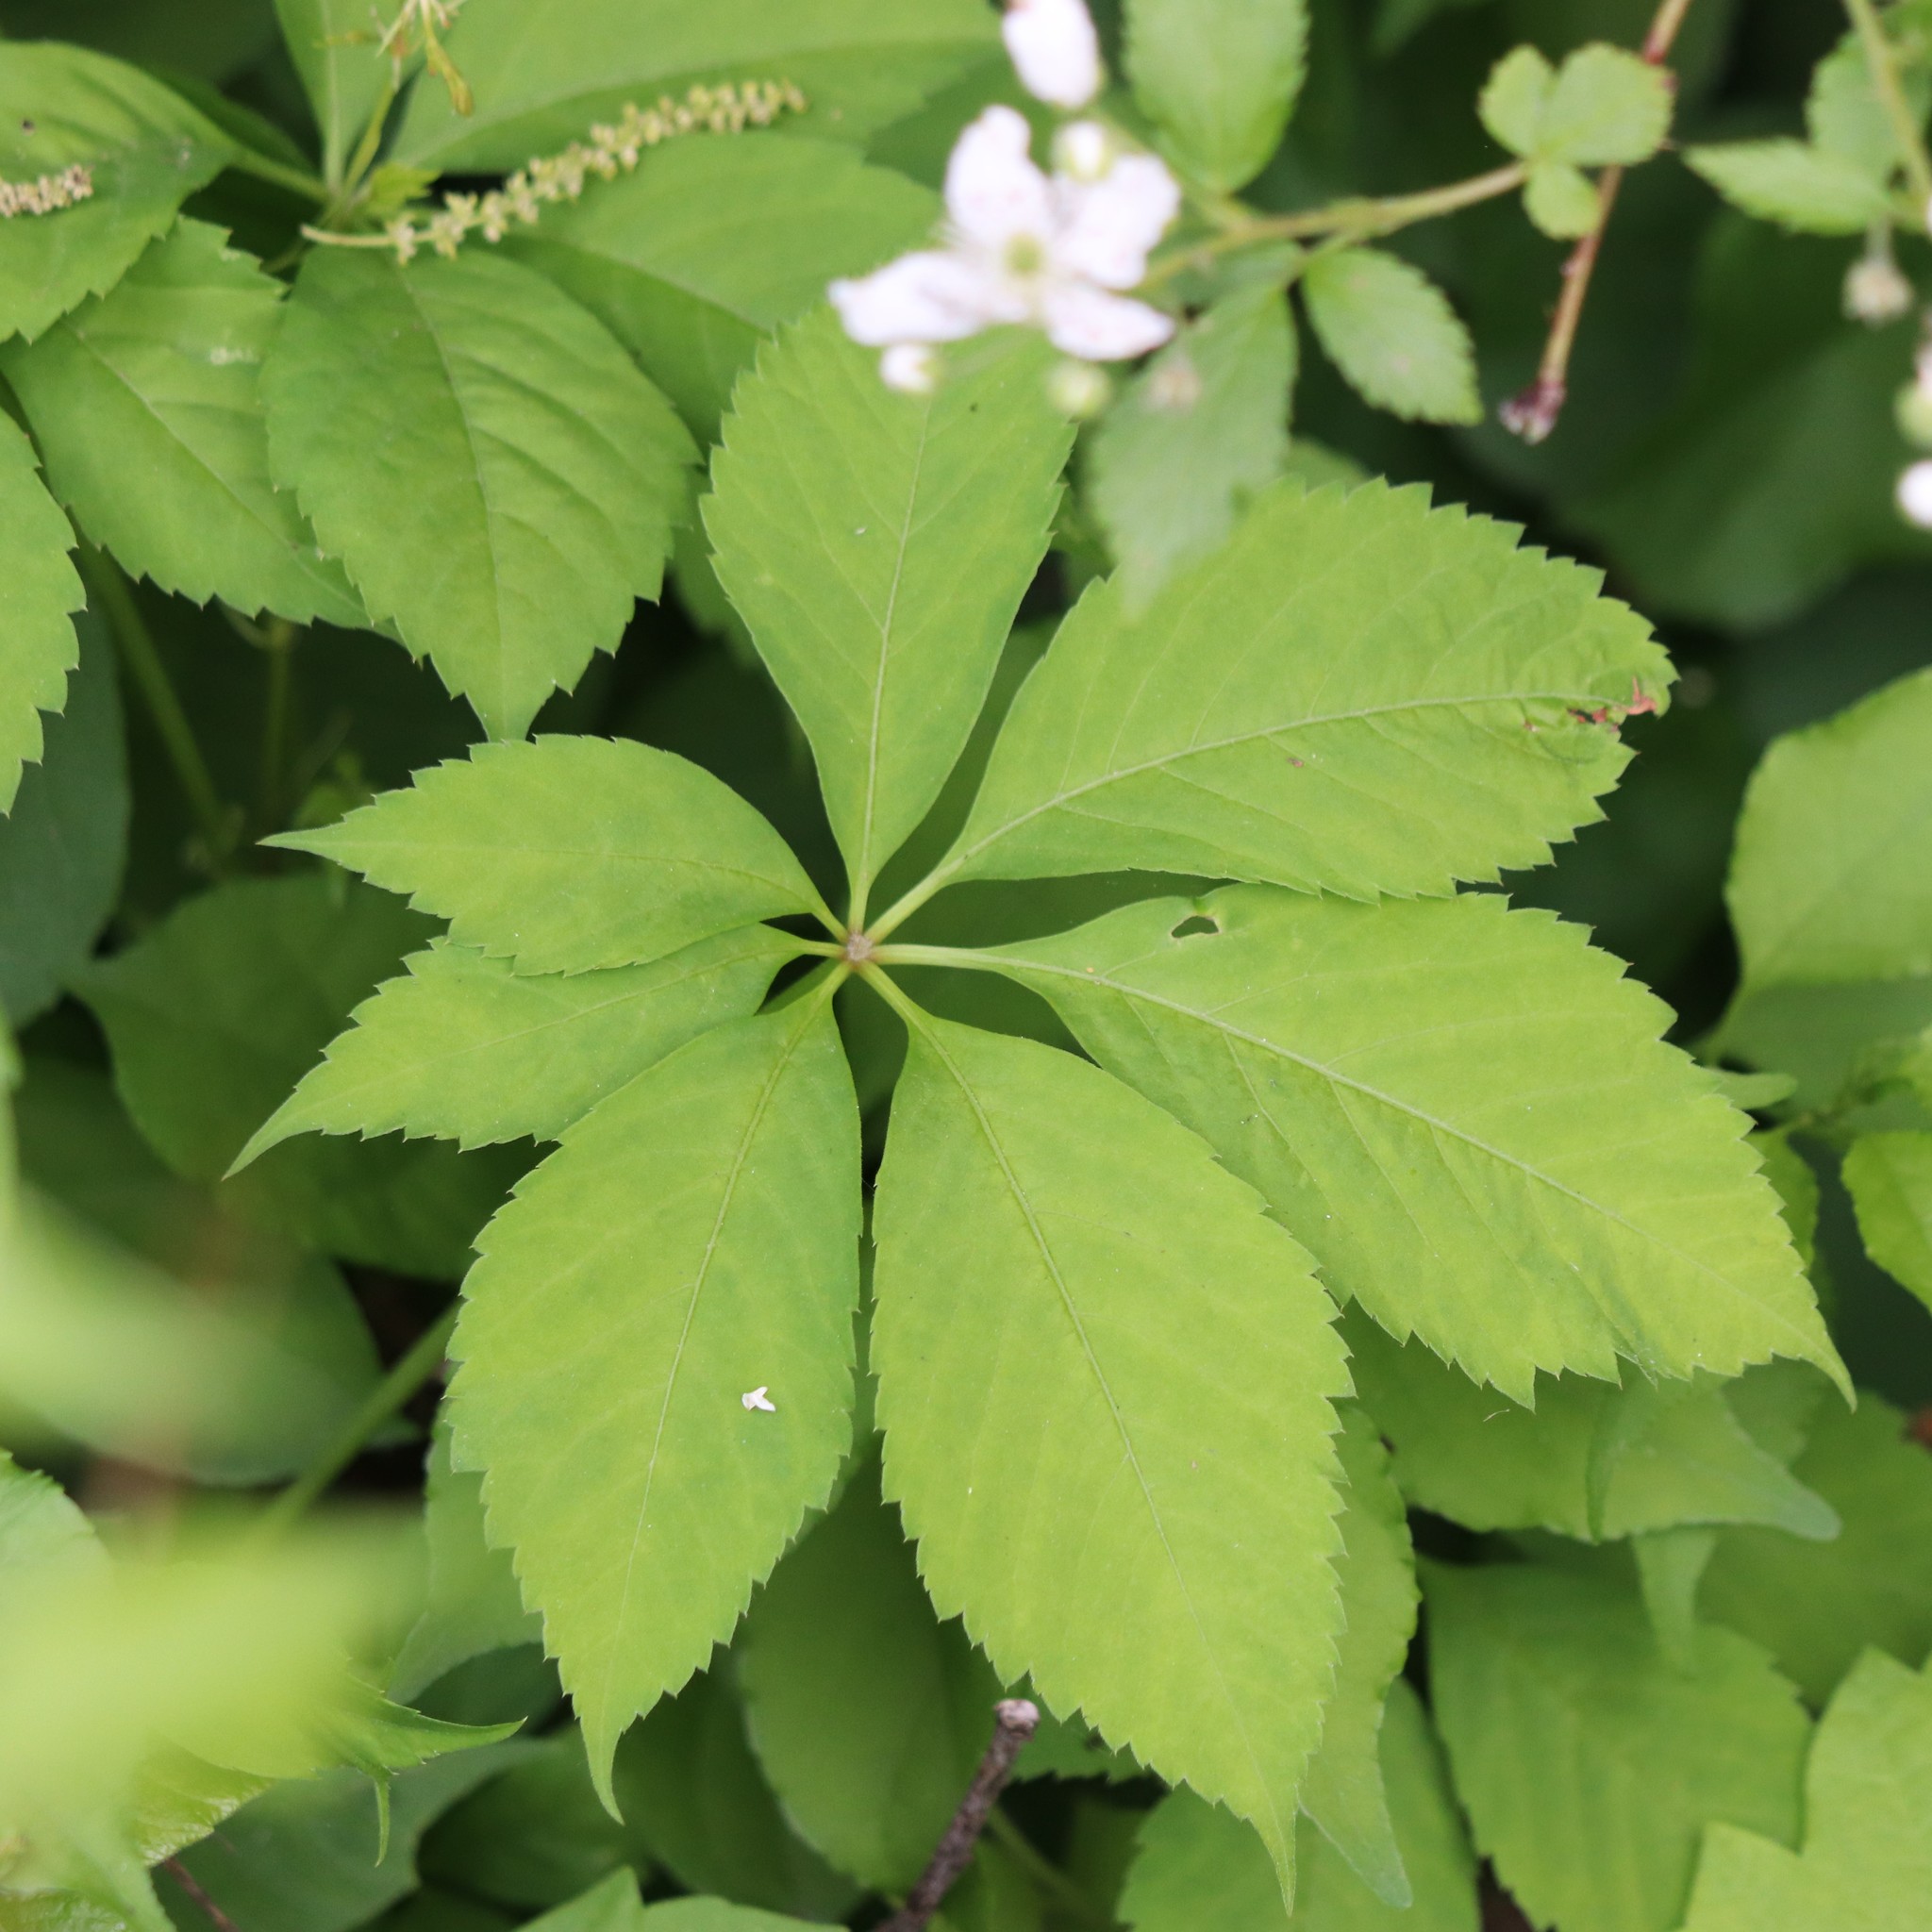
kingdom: Plantae
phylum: Tracheophyta
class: Magnoliopsida
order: Vitales
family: Vitaceae
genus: Parthenocissus
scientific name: Parthenocissus quinquefolia
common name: Virginia-creeper
